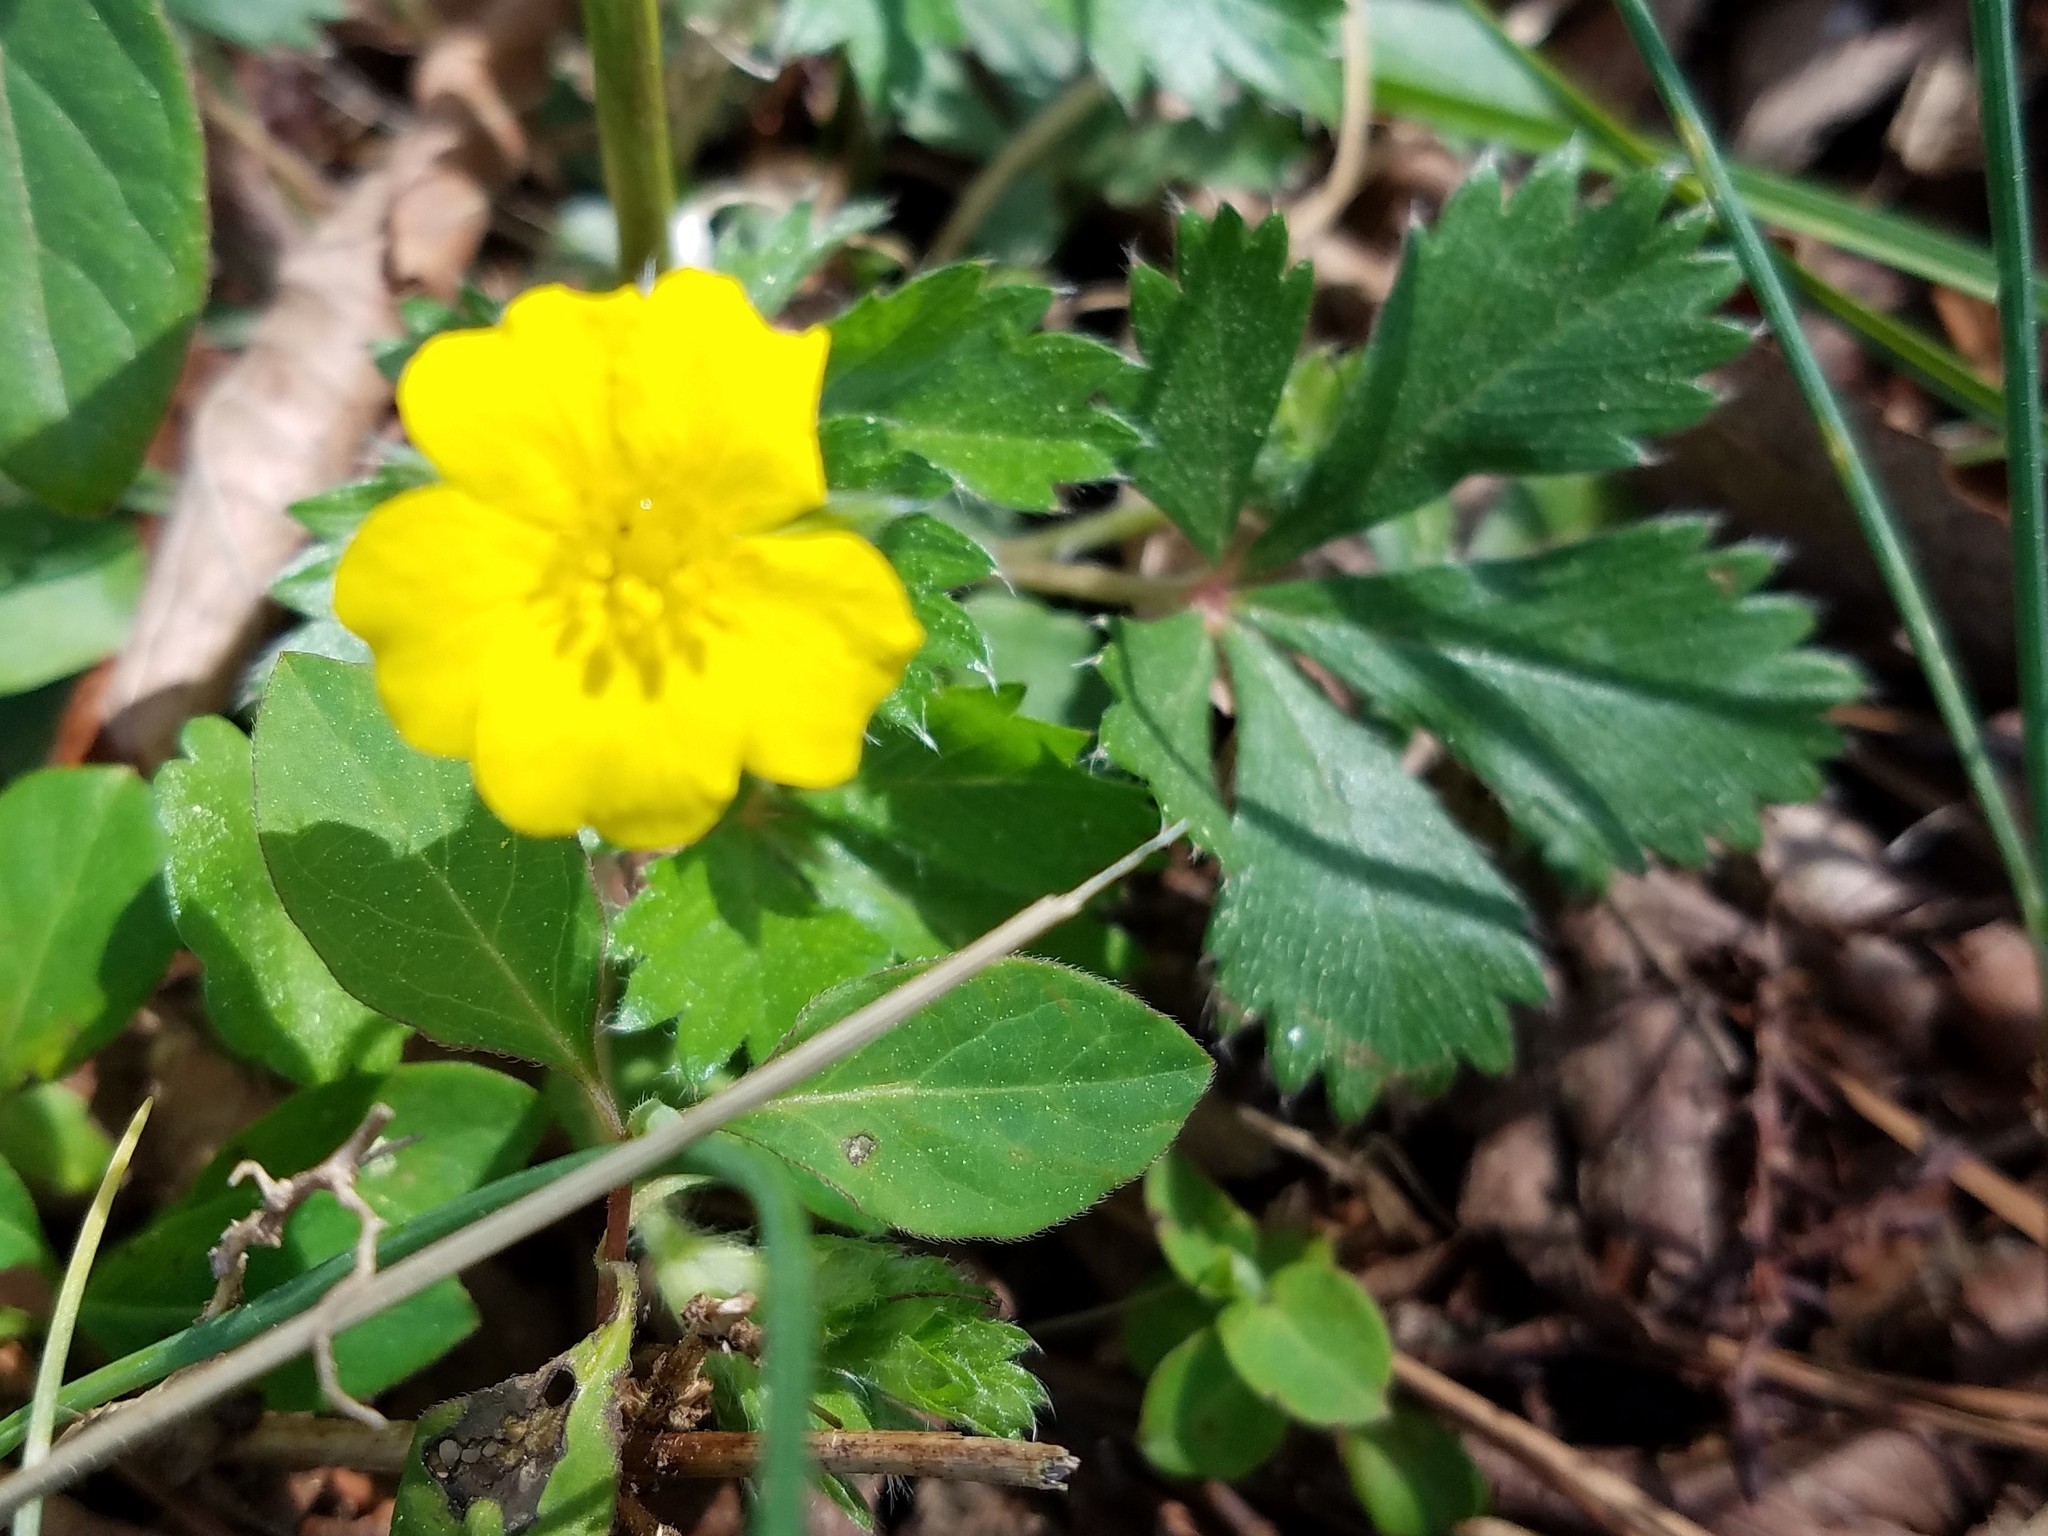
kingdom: Plantae
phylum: Tracheophyta
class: Magnoliopsida
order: Rosales
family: Rosaceae
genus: Potentilla
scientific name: Potentilla canadensis
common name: Canada cinquefoil
